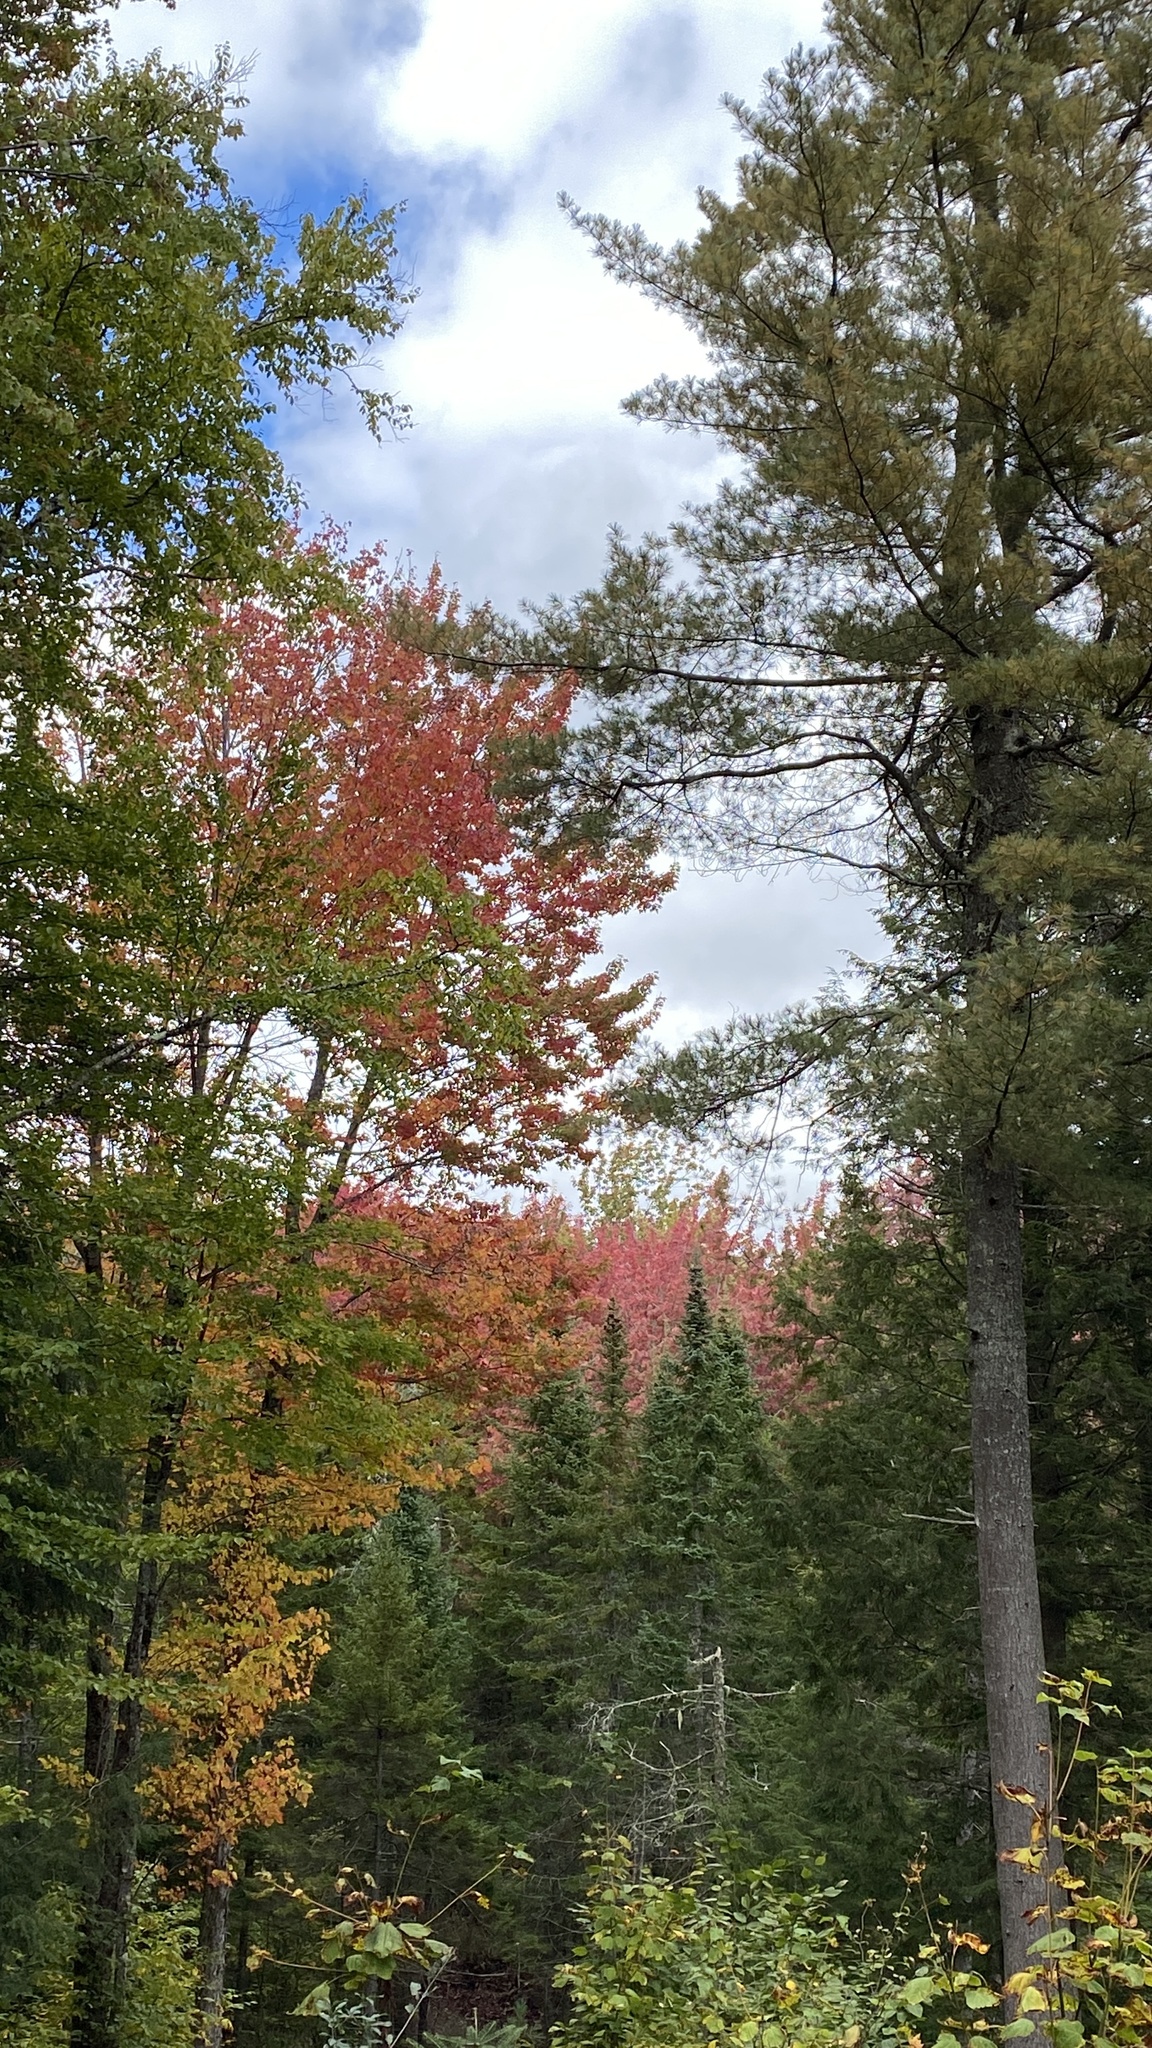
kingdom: Plantae
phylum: Tracheophyta
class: Magnoliopsida
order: Sapindales
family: Sapindaceae
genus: Acer
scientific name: Acer rubrum
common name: Red maple
